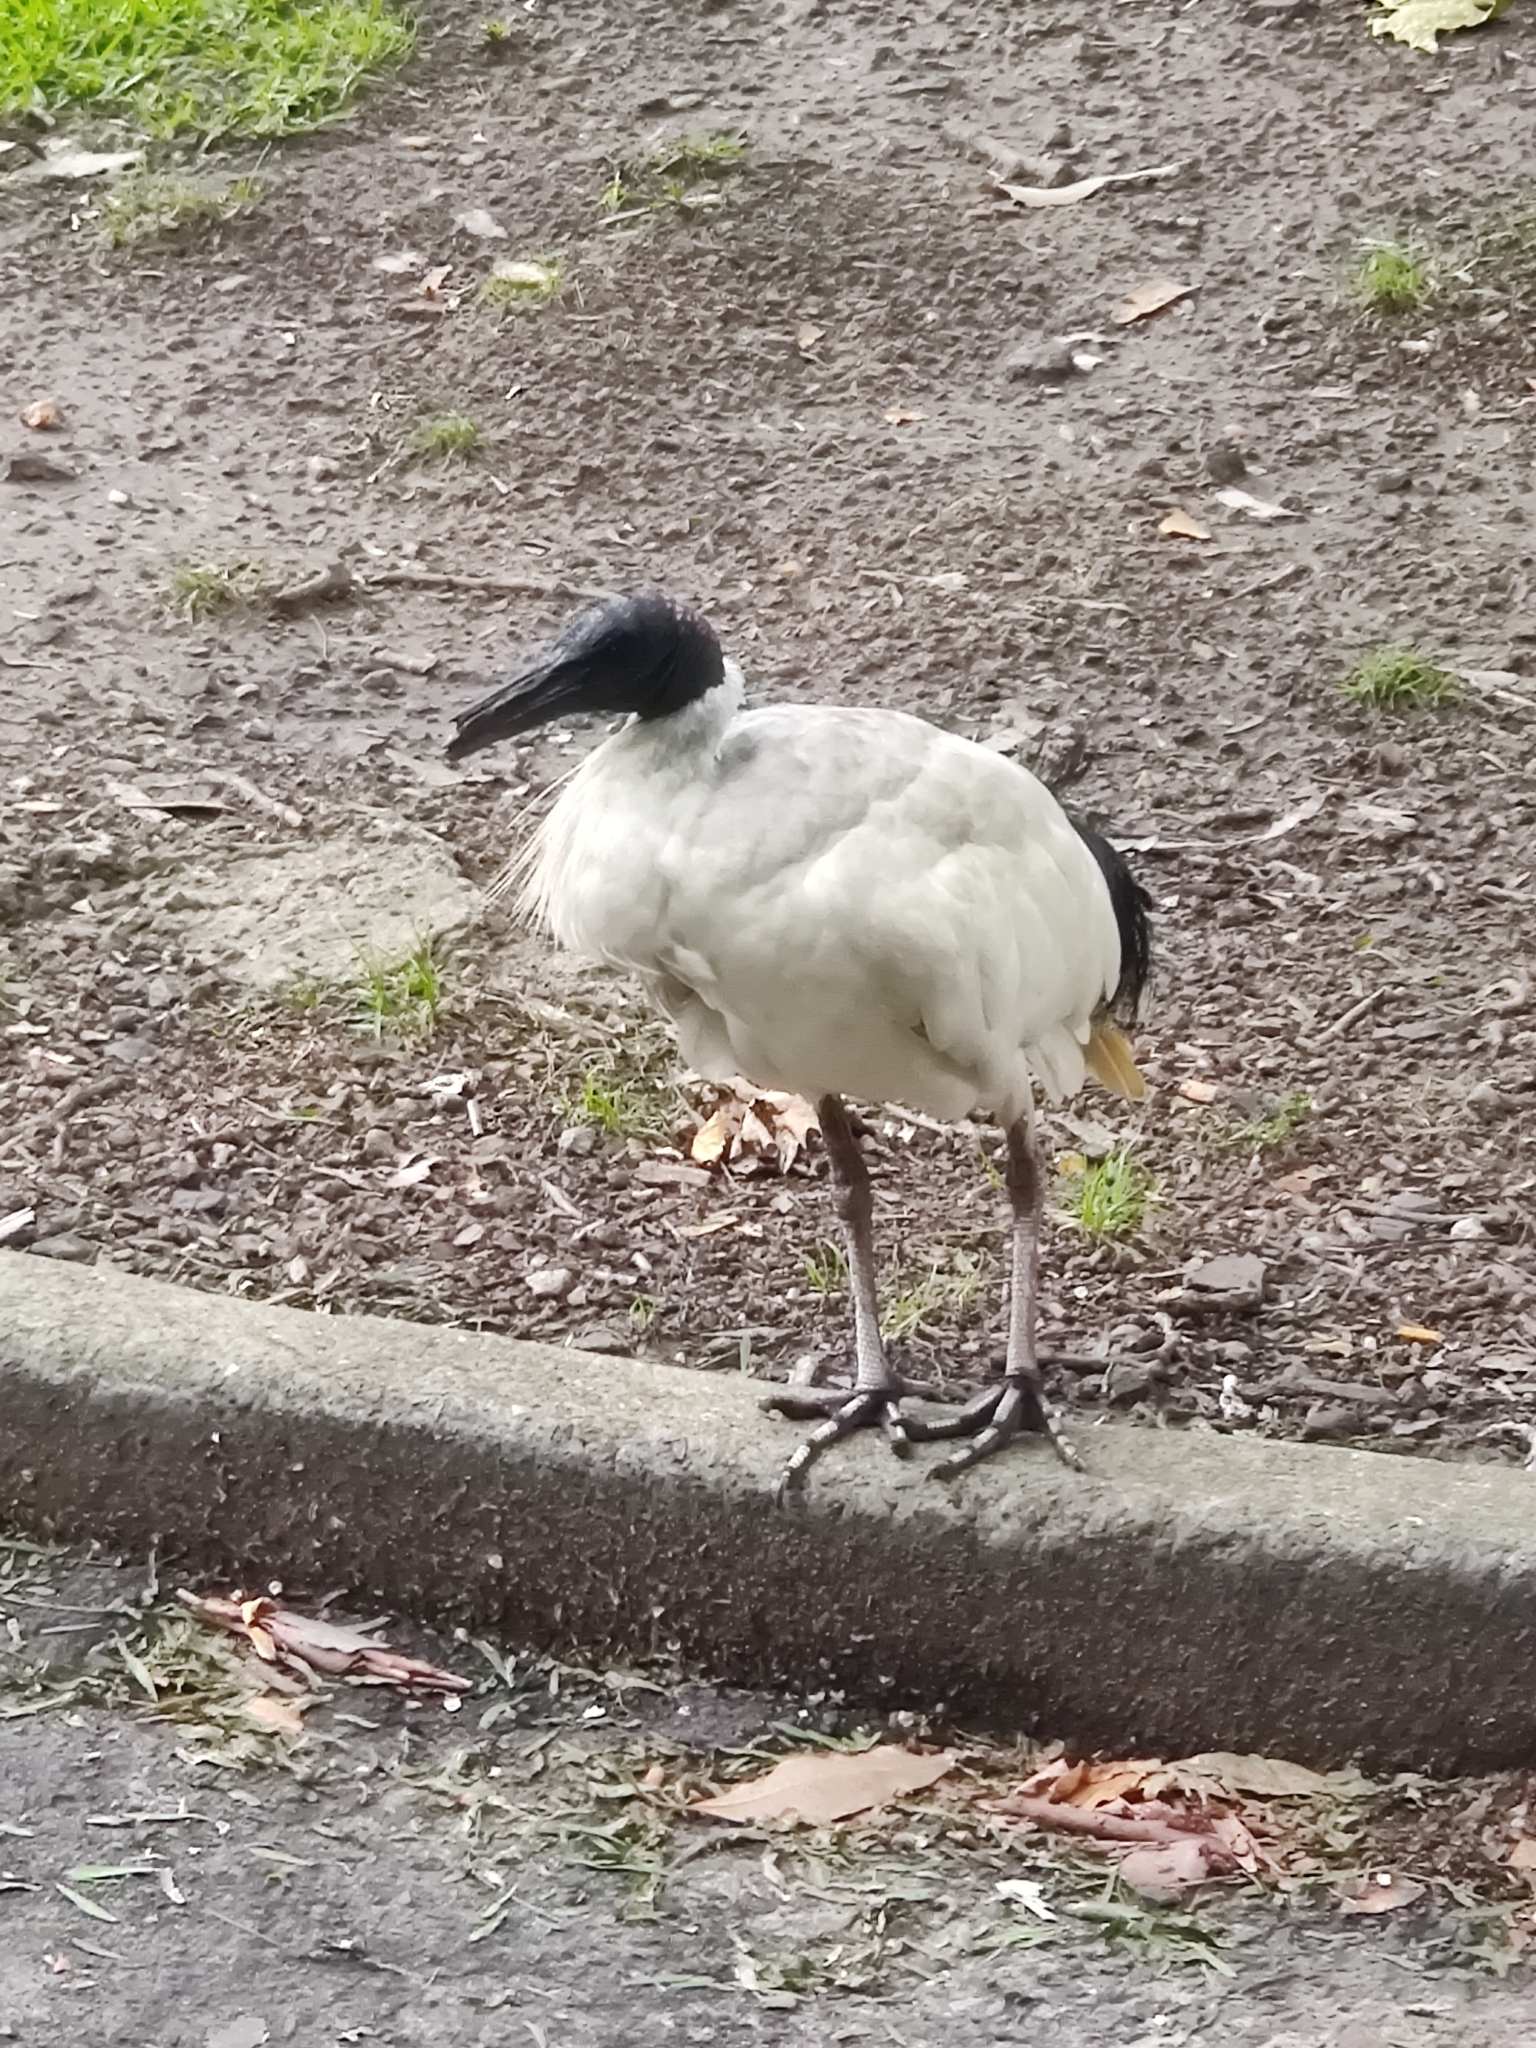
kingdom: Animalia
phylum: Chordata
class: Aves
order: Pelecaniformes
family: Threskiornithidae
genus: Threskiornis
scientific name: Threskiornis molucca
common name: Australian white ibis
